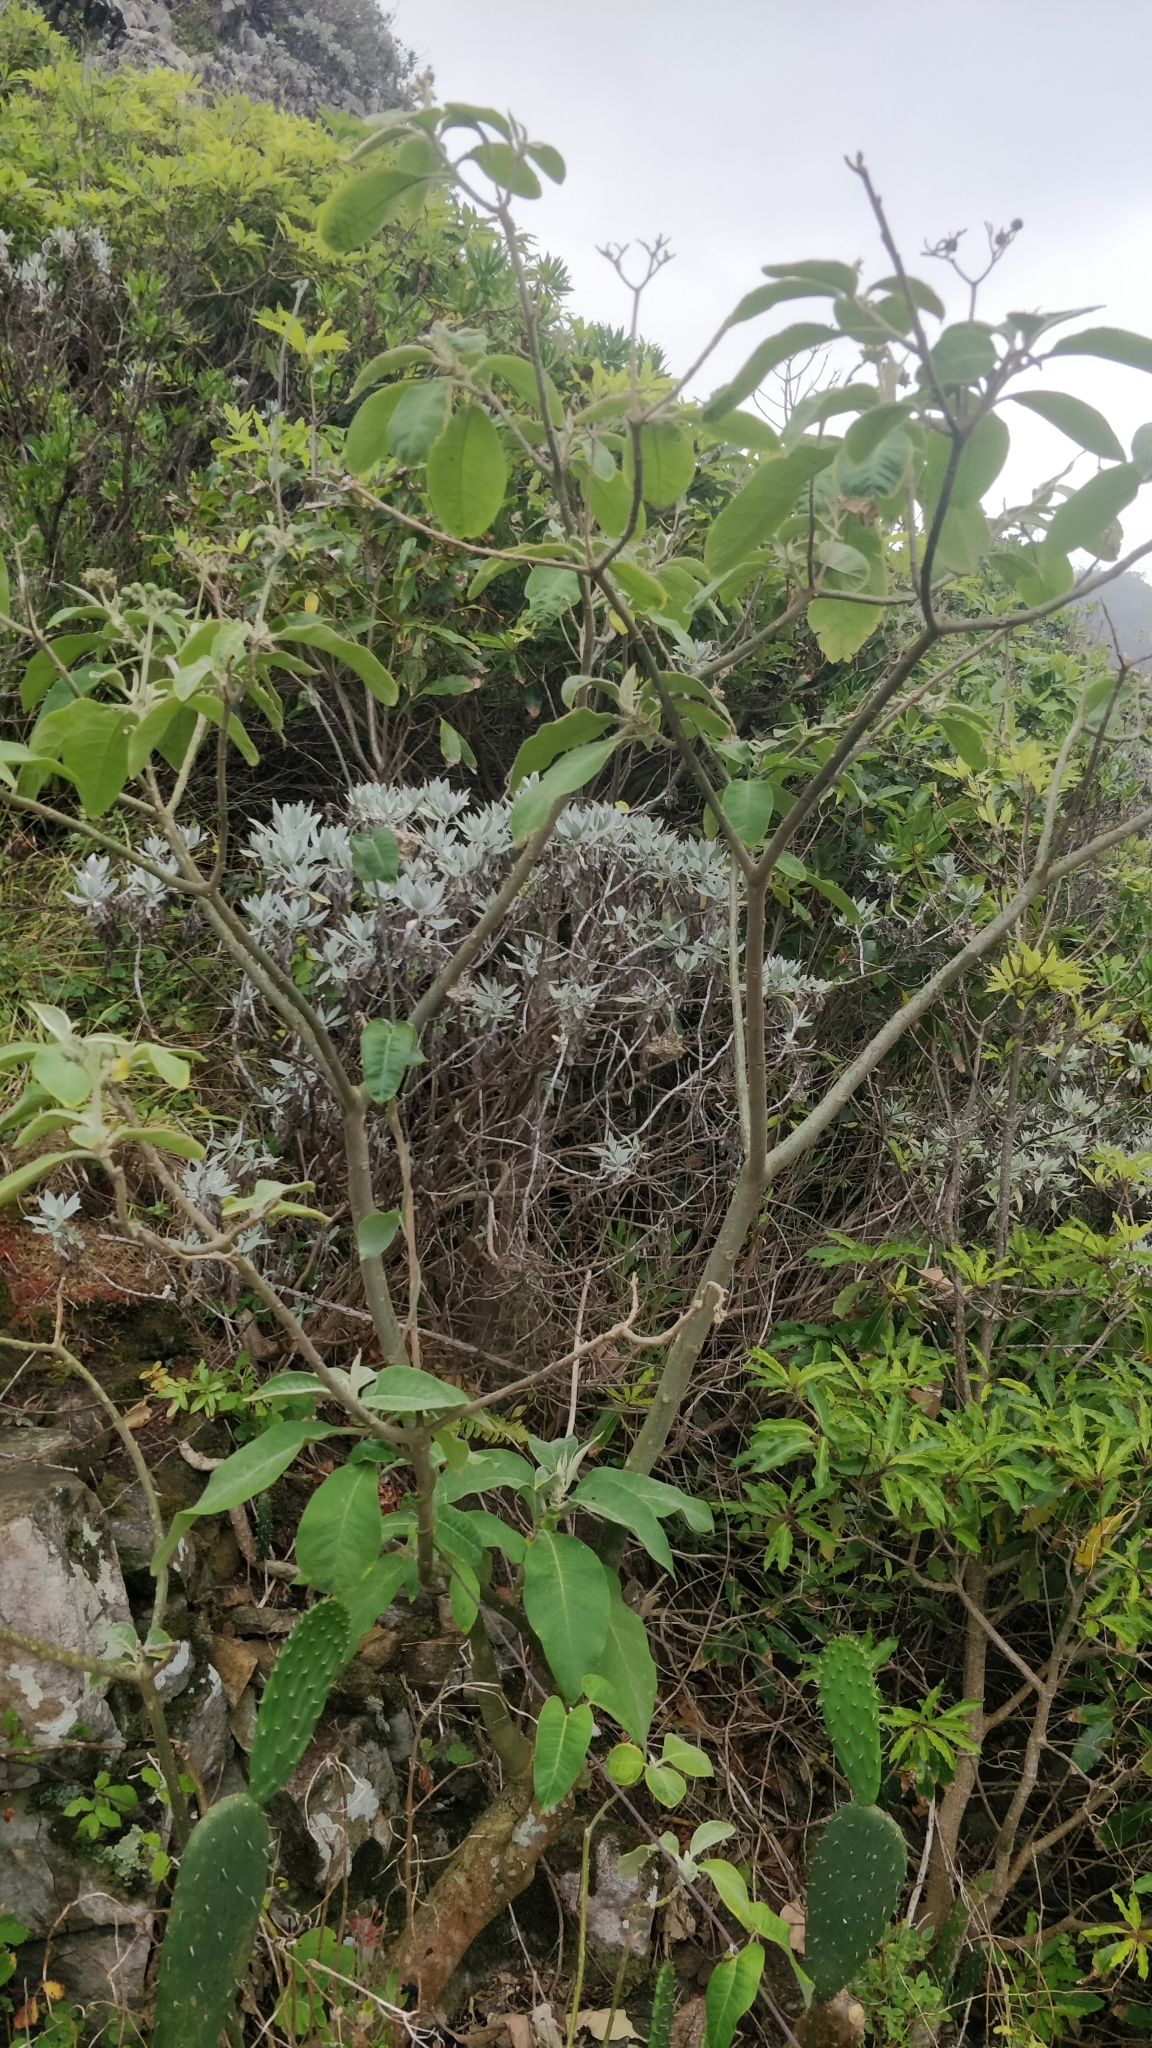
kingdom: Plantae
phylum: Tracheophyta
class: Magnoliopsida
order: Asterales
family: Asteraceae
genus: Helichrysum
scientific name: Helichrysum melaleucum
